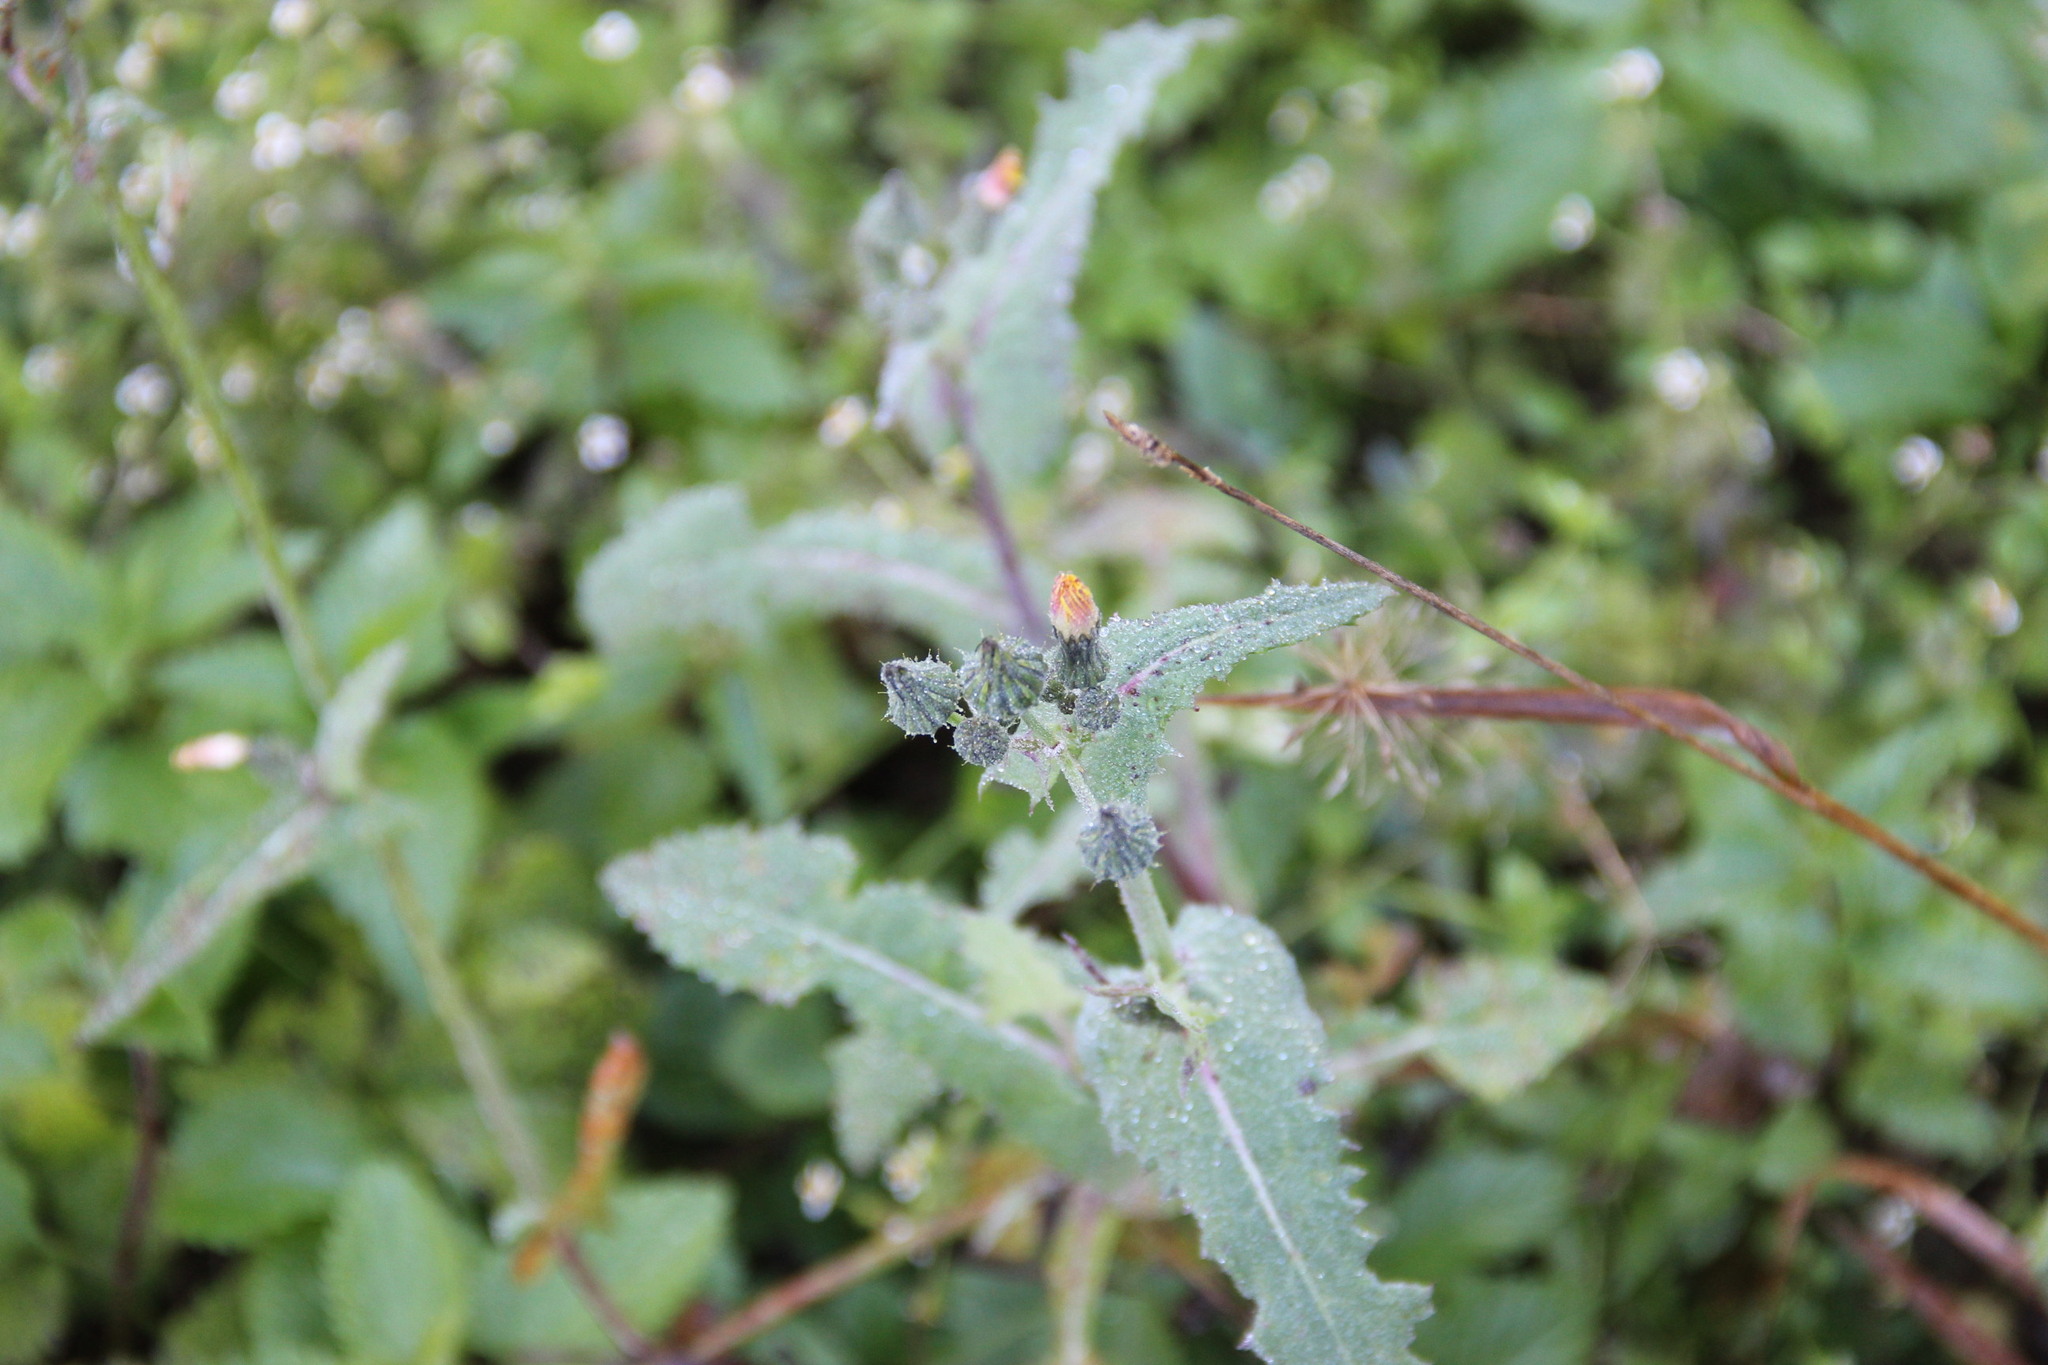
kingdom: Plantae
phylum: Tracheophyta
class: Magnoliopsida
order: Asterales
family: Asteraceae
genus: Sonchus
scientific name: Sonchus oleraceus
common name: Common sowthistle
